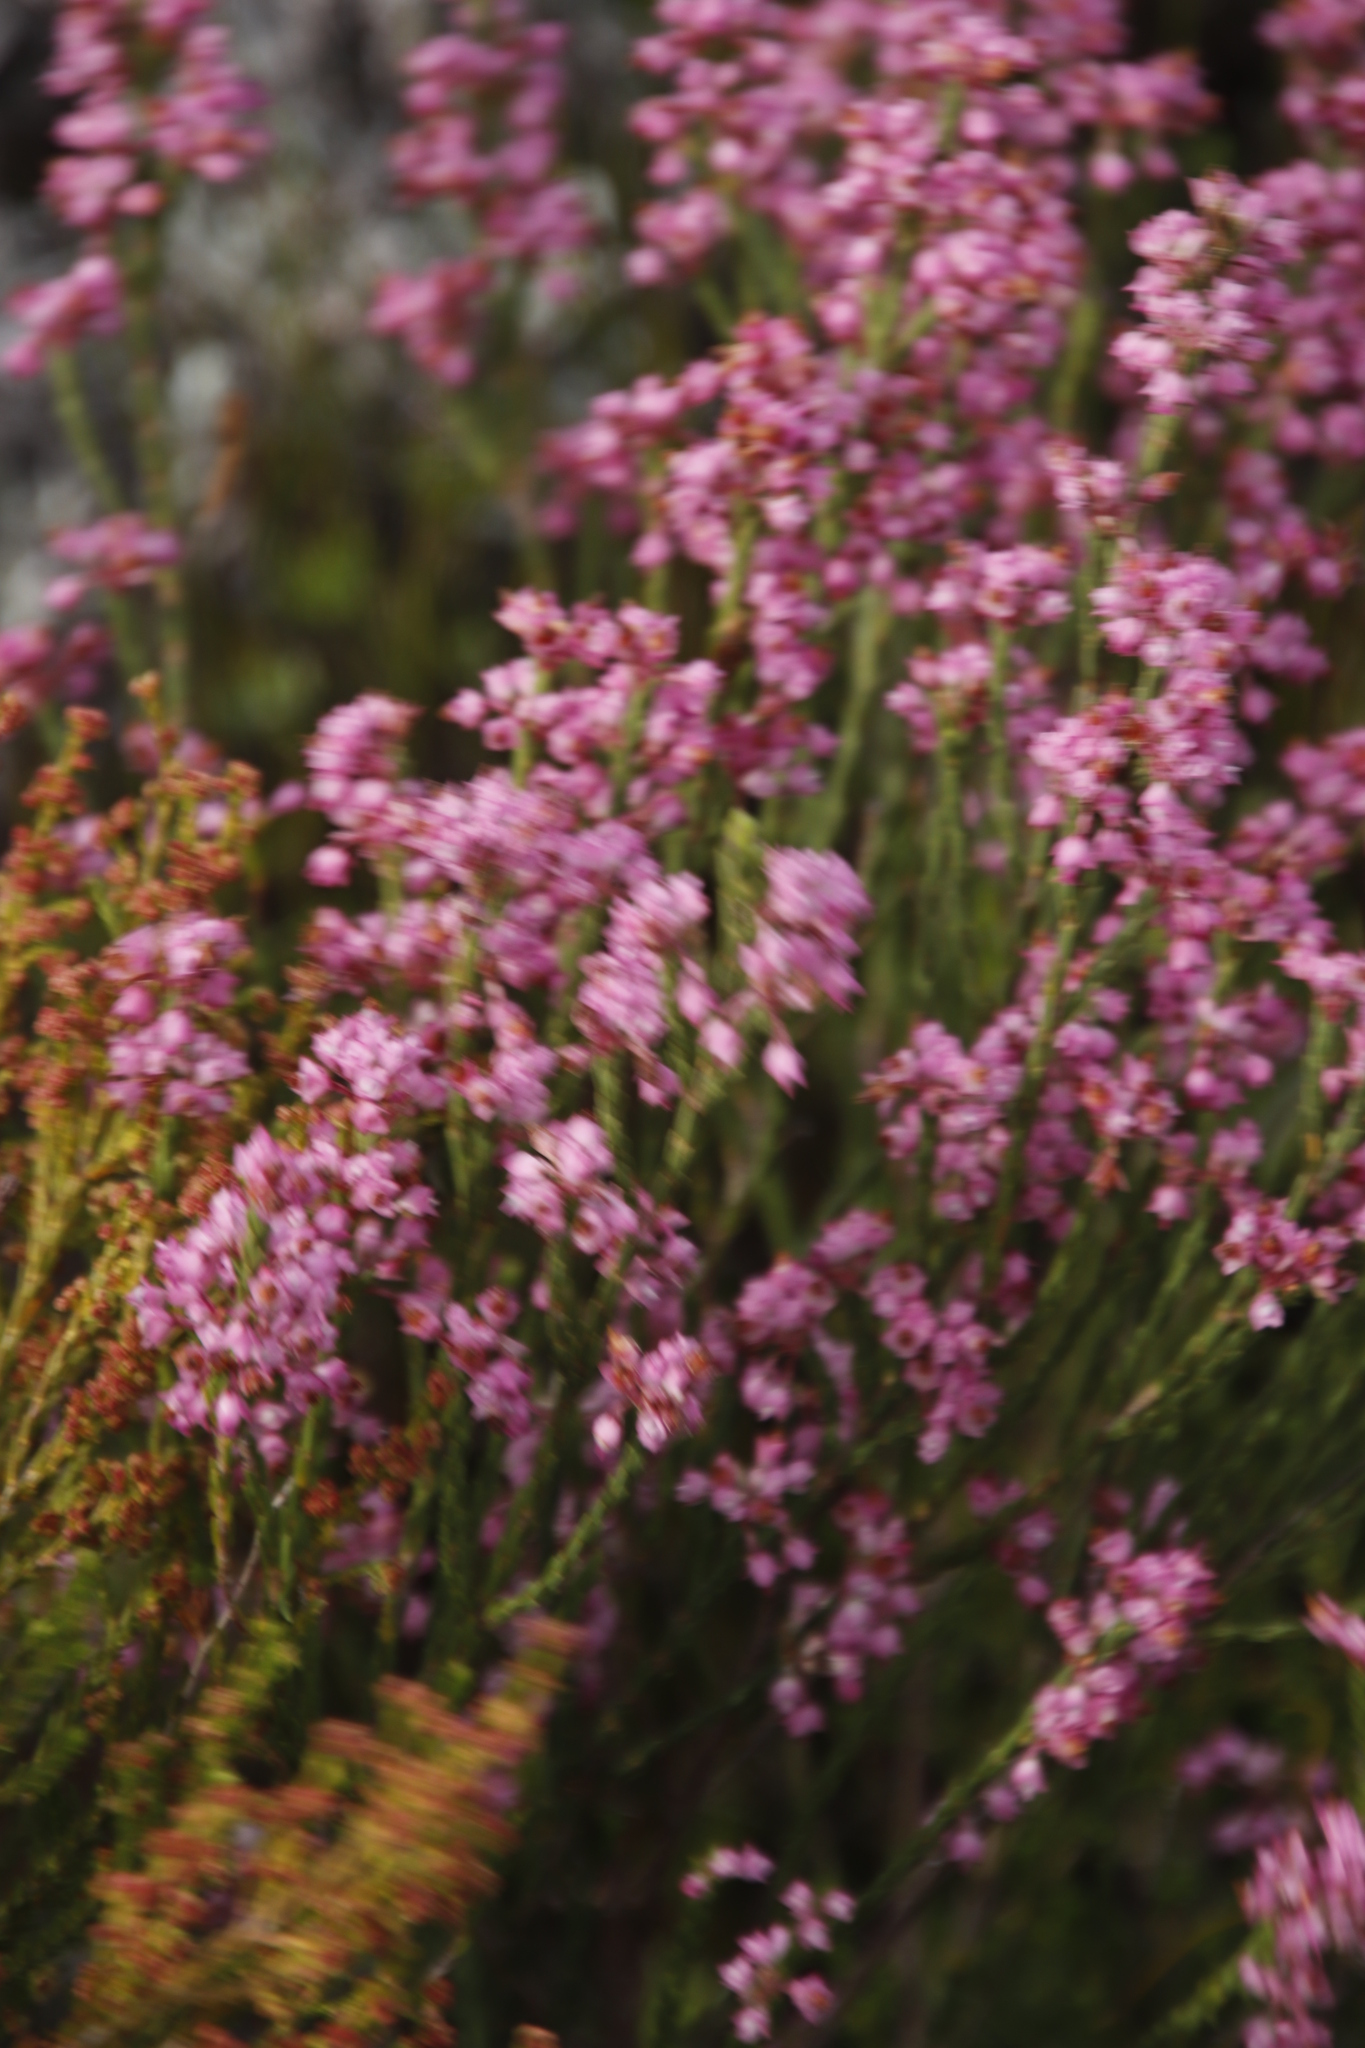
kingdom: Plantae
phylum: Tracheophyta
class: Magnoliopsida
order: Ericales
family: Ericaceae
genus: Erica
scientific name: Erica corifolia
